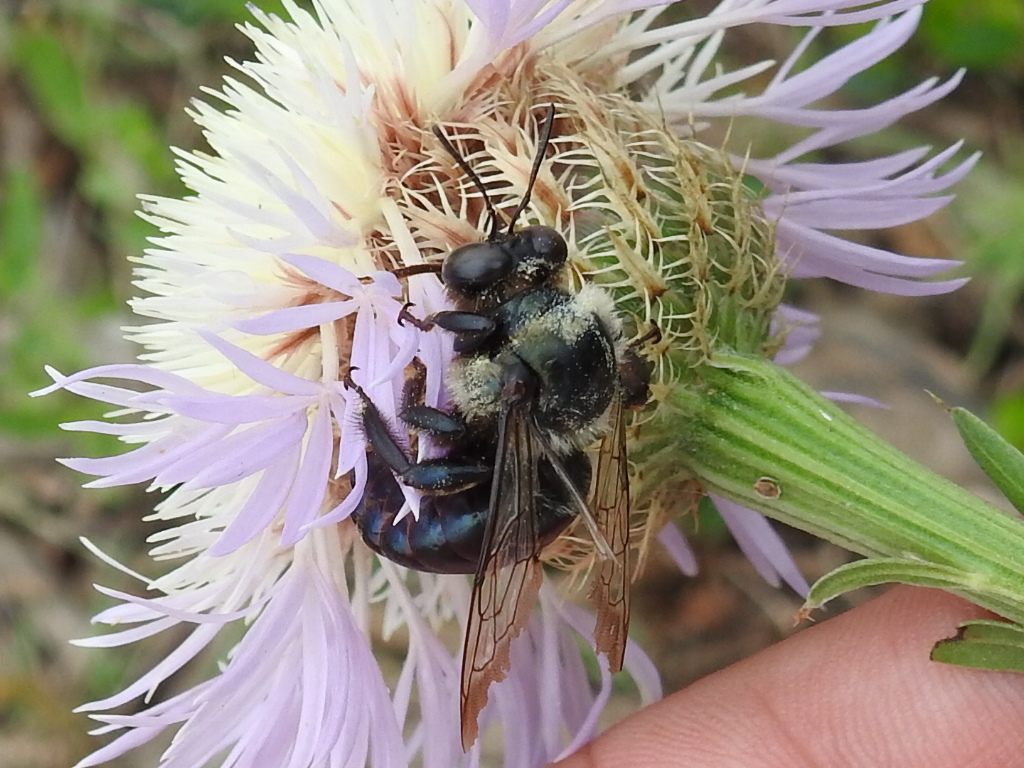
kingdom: Animalia
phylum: Arthropoda
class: Insecta
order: Hymenoptera
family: Apidae
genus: Xylocopa
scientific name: Xylocopa virginica
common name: Carpenter bee
